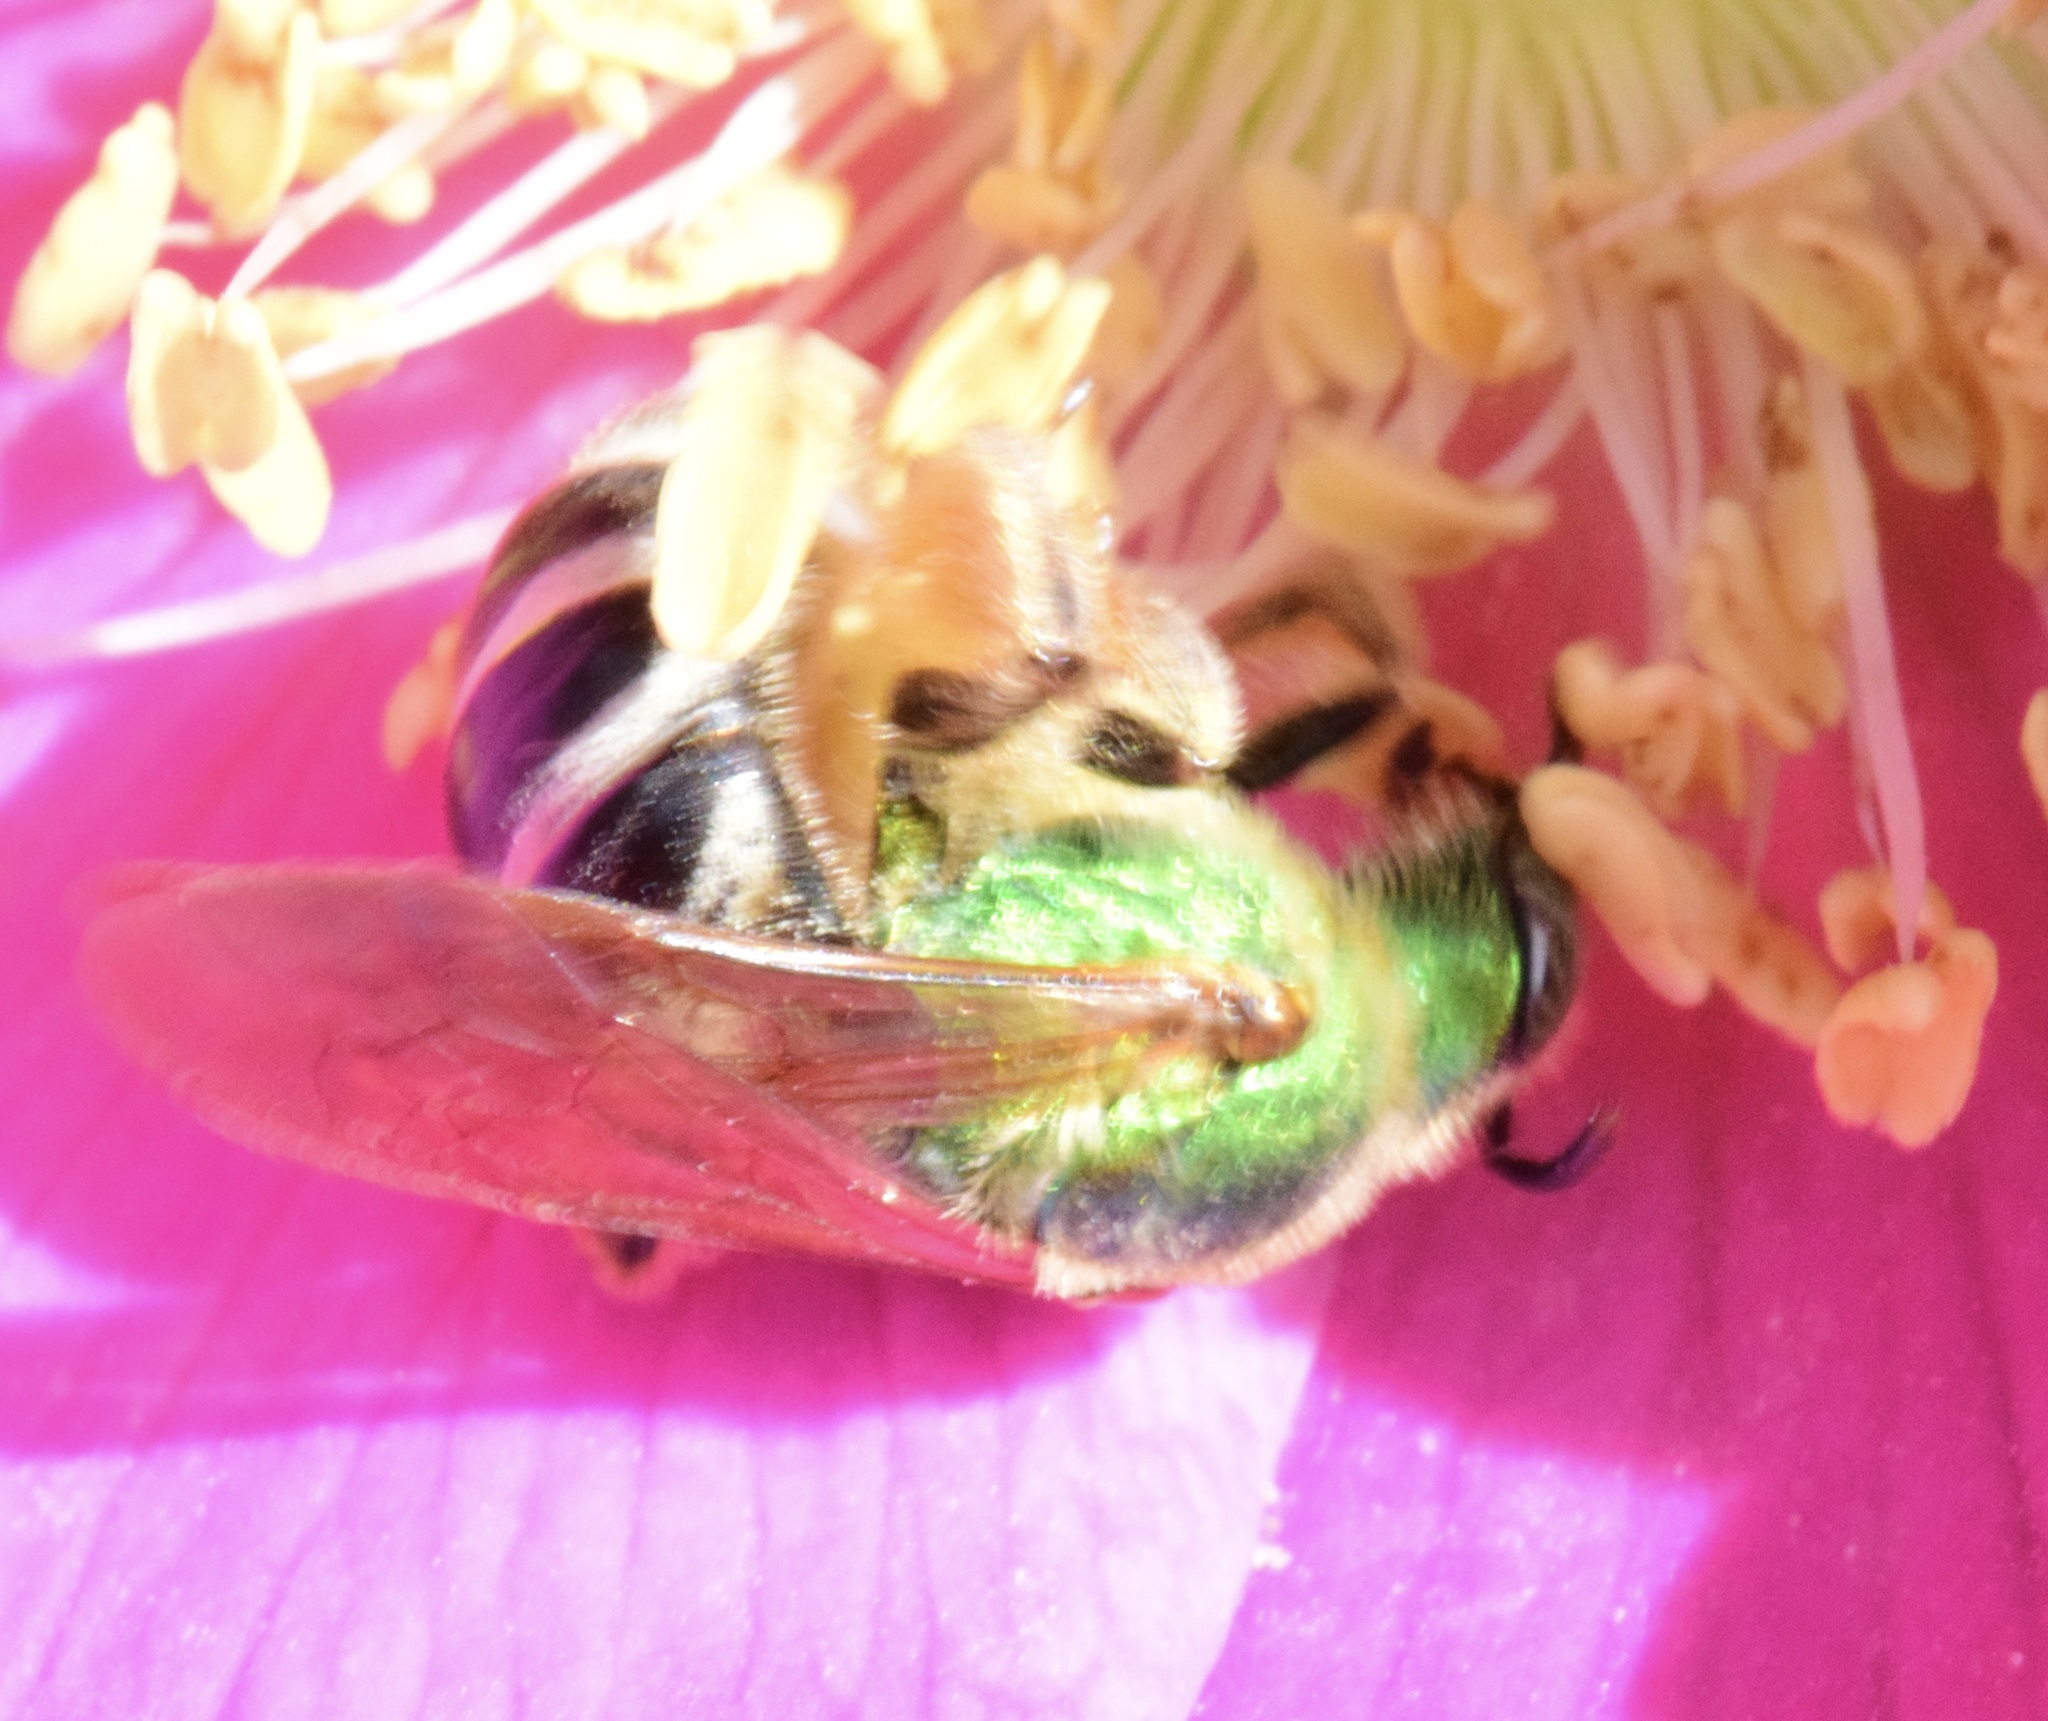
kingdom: Animalia
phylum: Arthropoda
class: Insecta
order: Hymenoptera
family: Halictidae
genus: Agapostemon
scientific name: Agapostemon virescens
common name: Bicolored striped sweat bee
